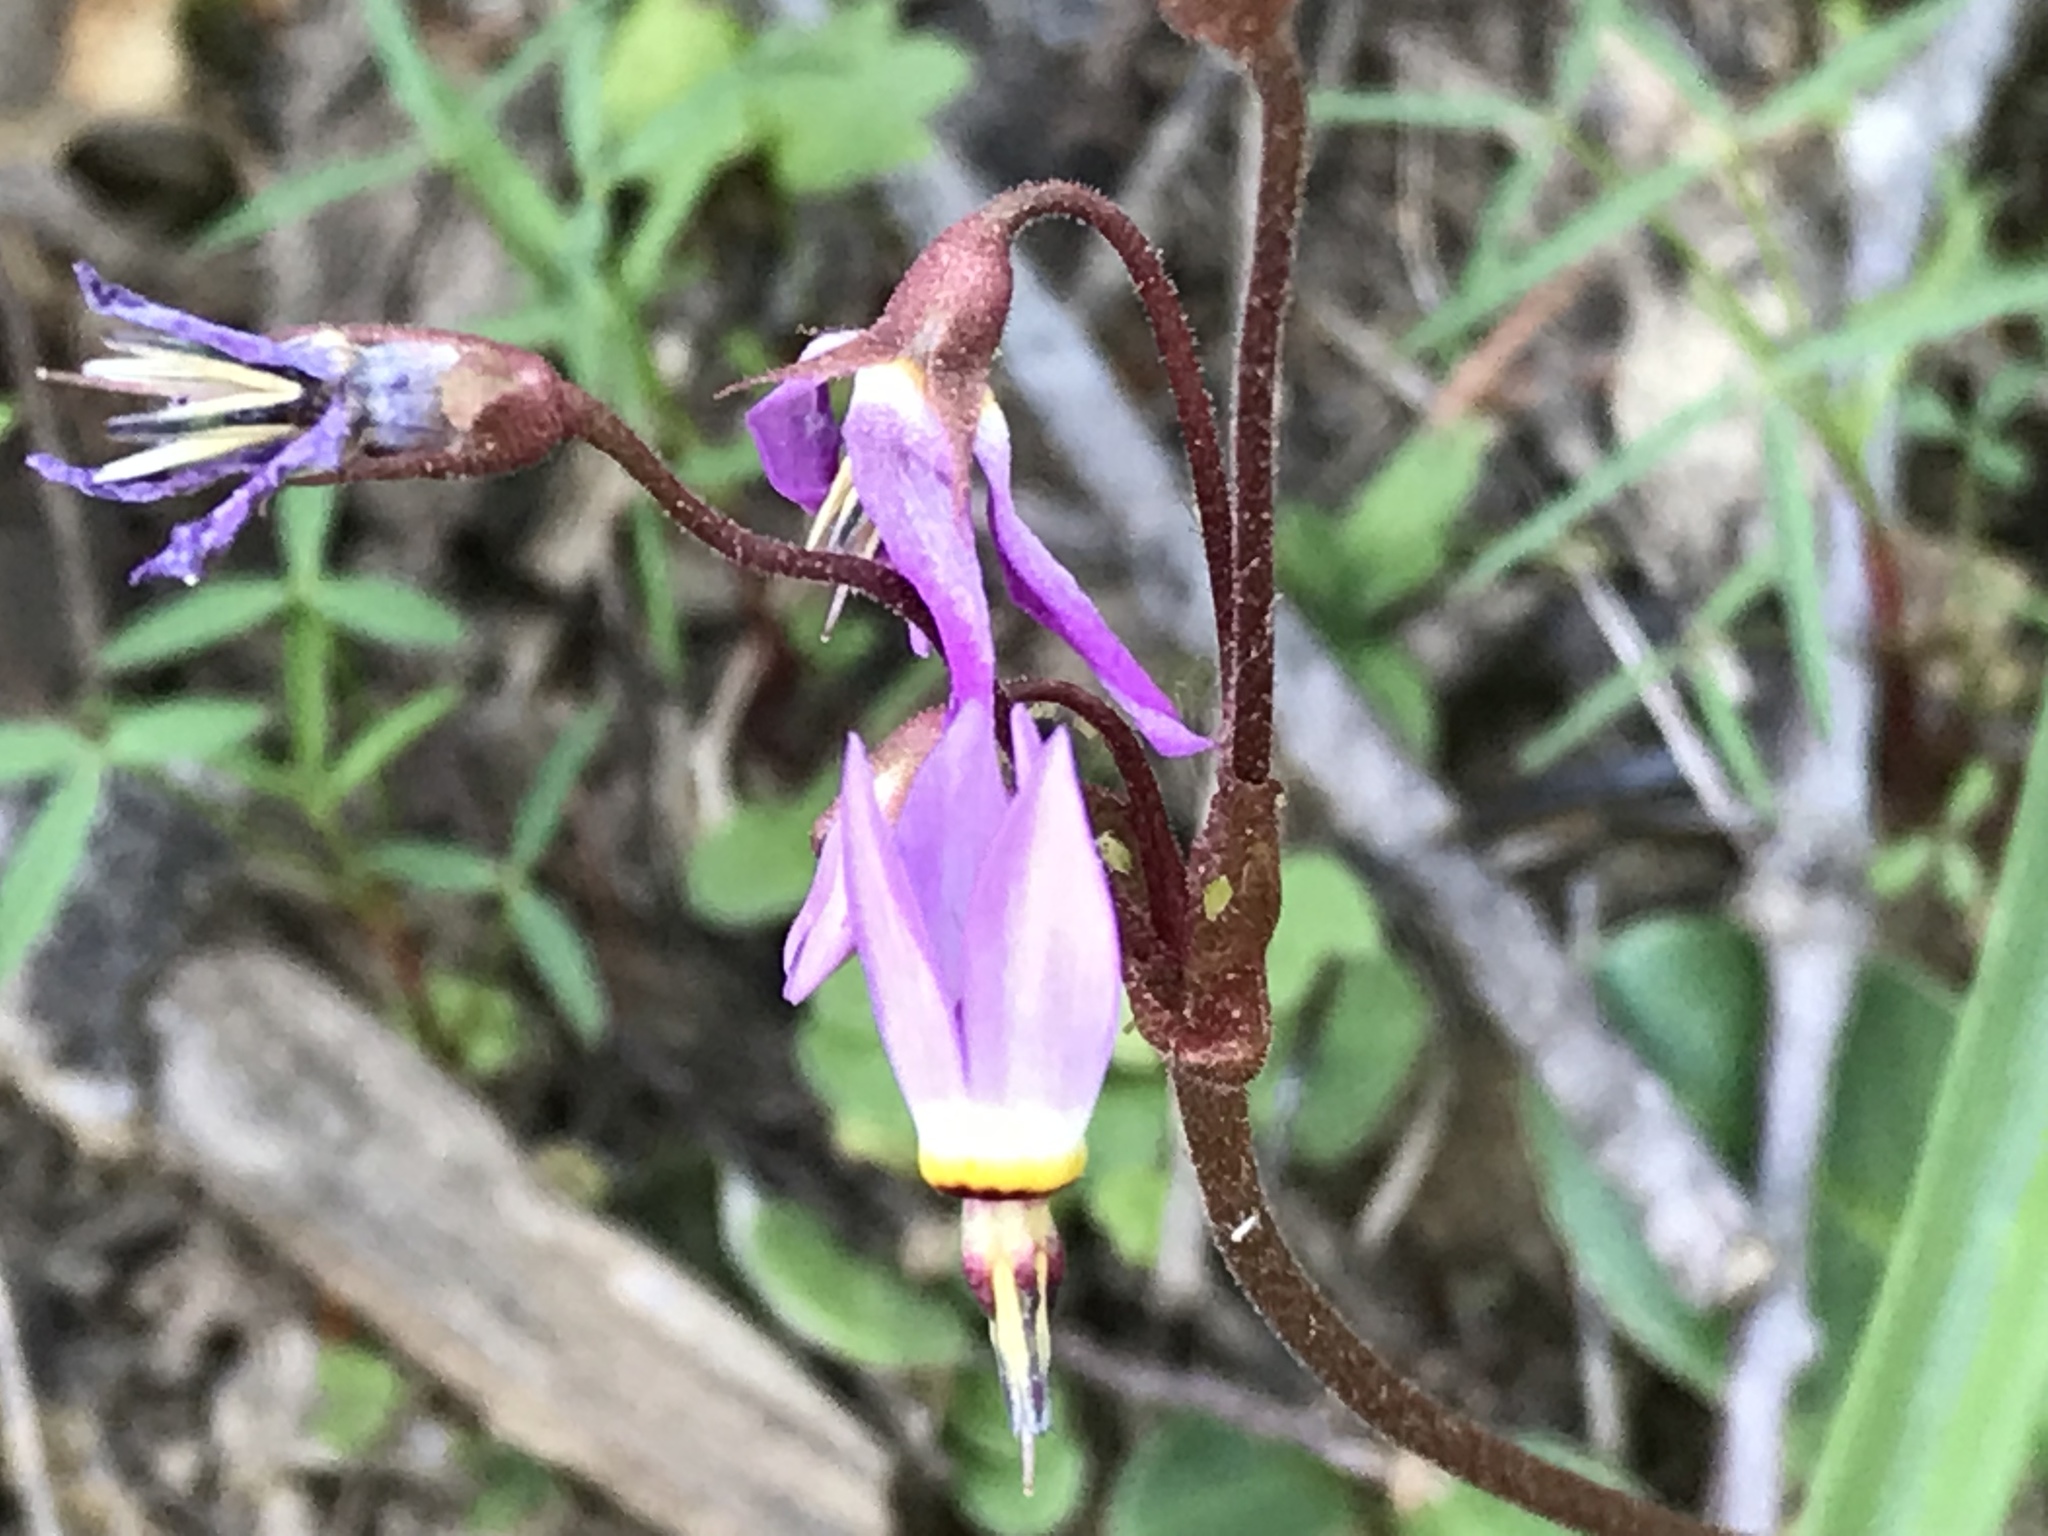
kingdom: Plantae
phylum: Tracheophyta
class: Magnoliopsida
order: Ericales
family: Primulaceae
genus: Dodecatheon
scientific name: Dodecatheon hendersonii
